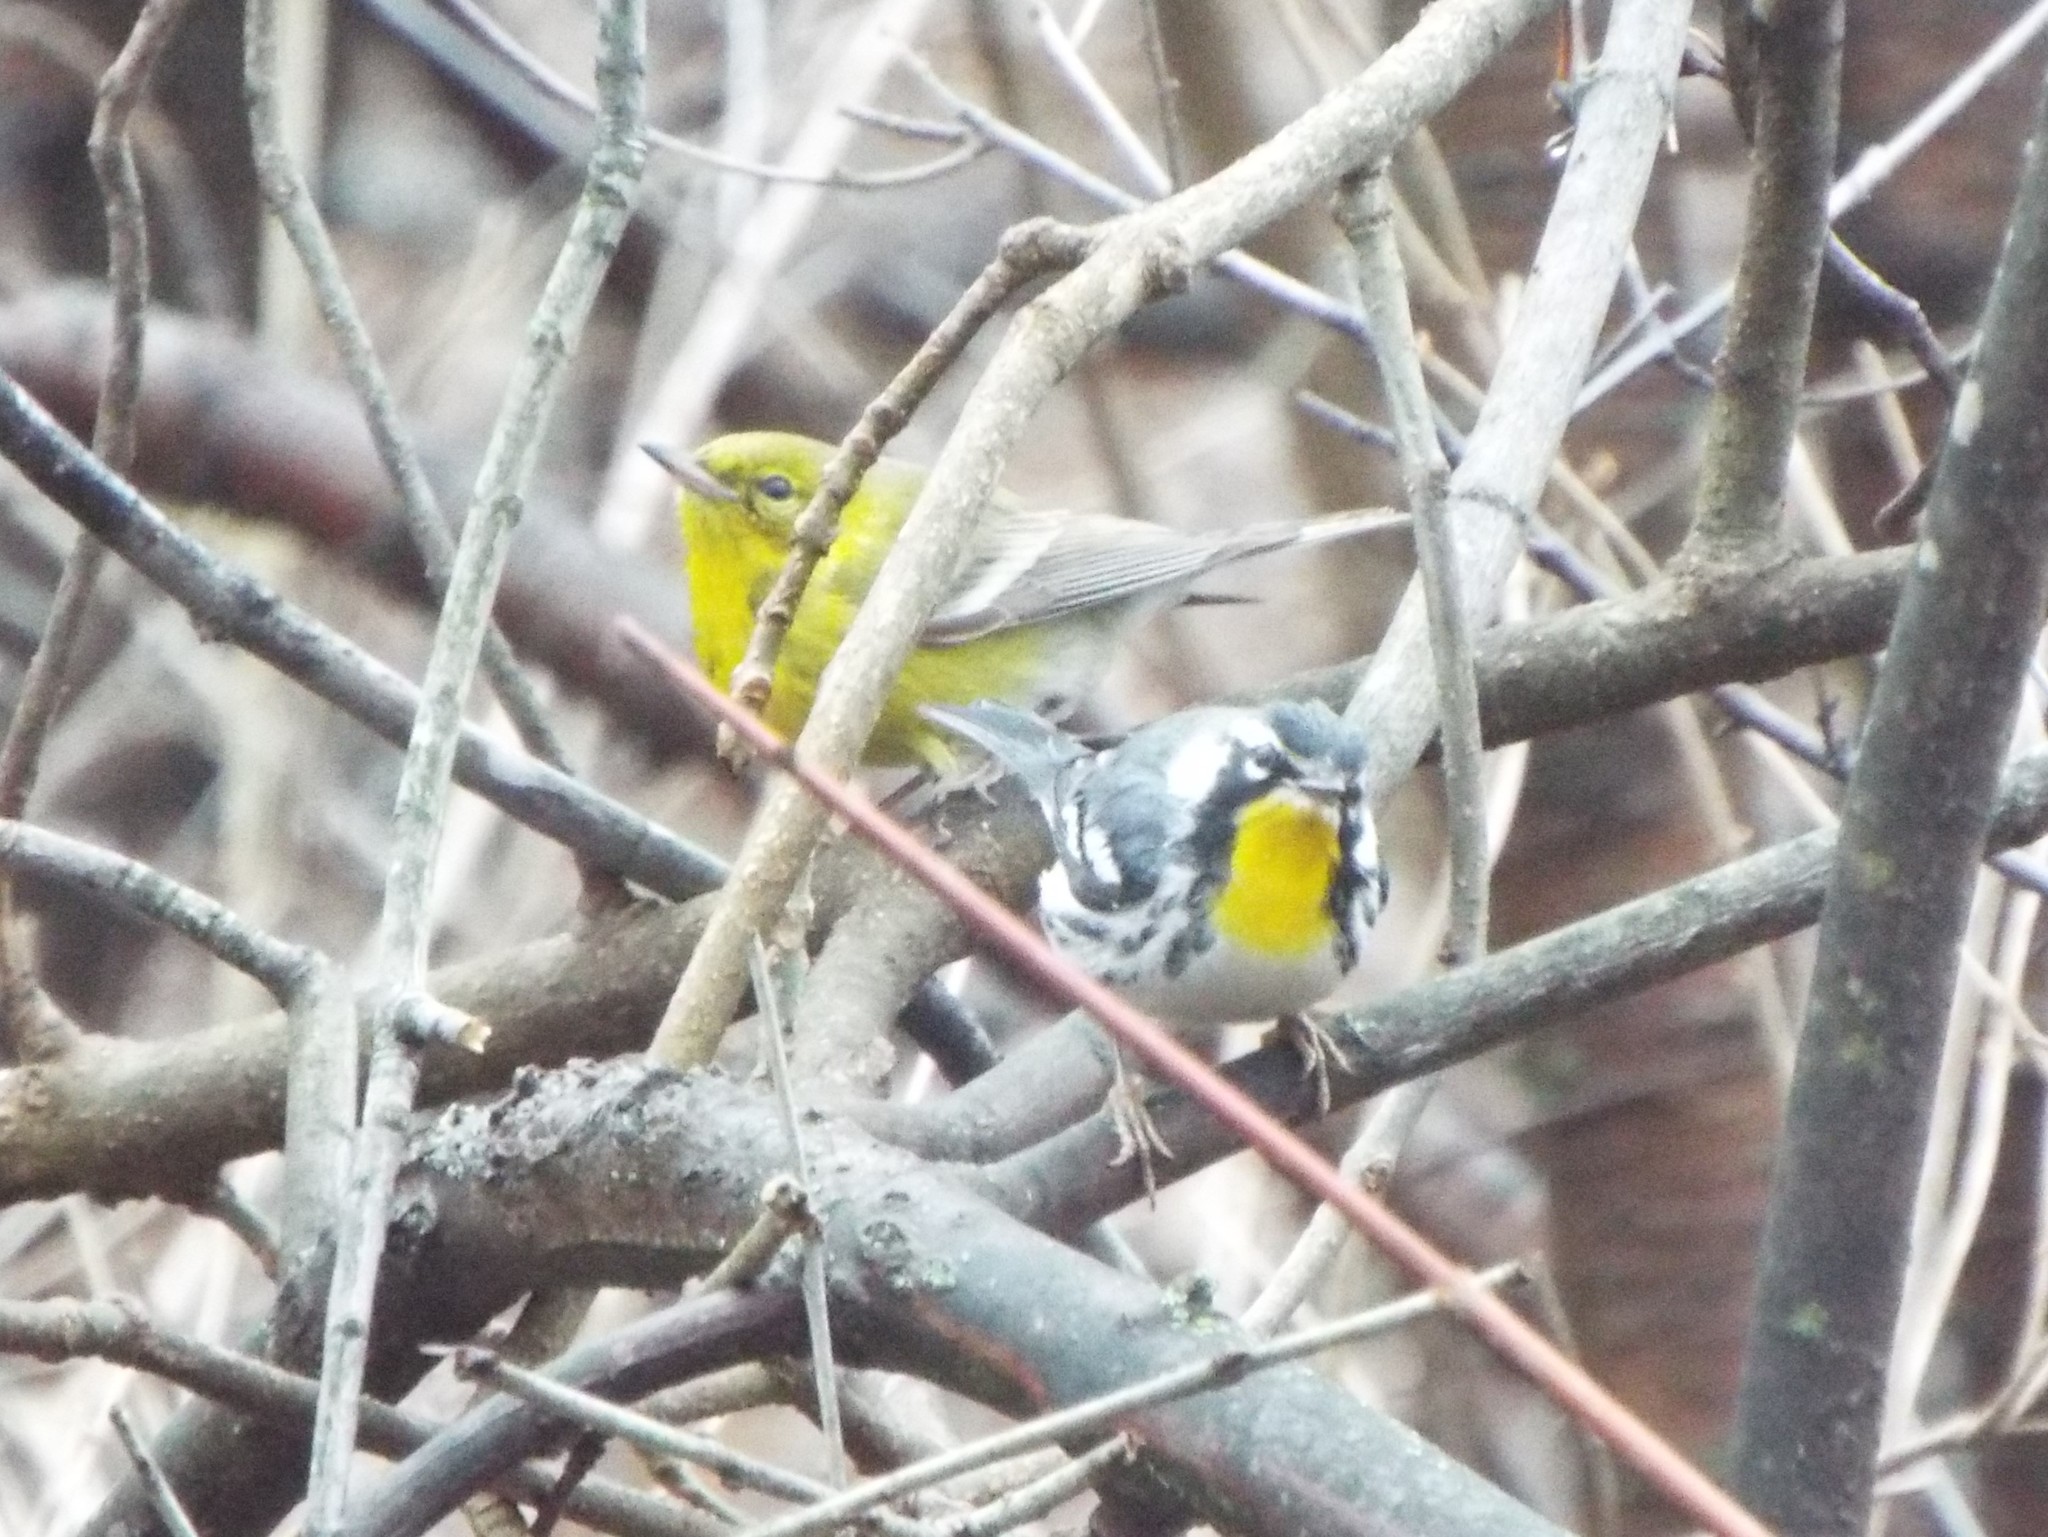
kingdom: Animalia
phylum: Chordata
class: Aves
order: Passeriformes
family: Parulidae
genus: Setophaga
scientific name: Setophaga dominica
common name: Yellow-throated warbler
